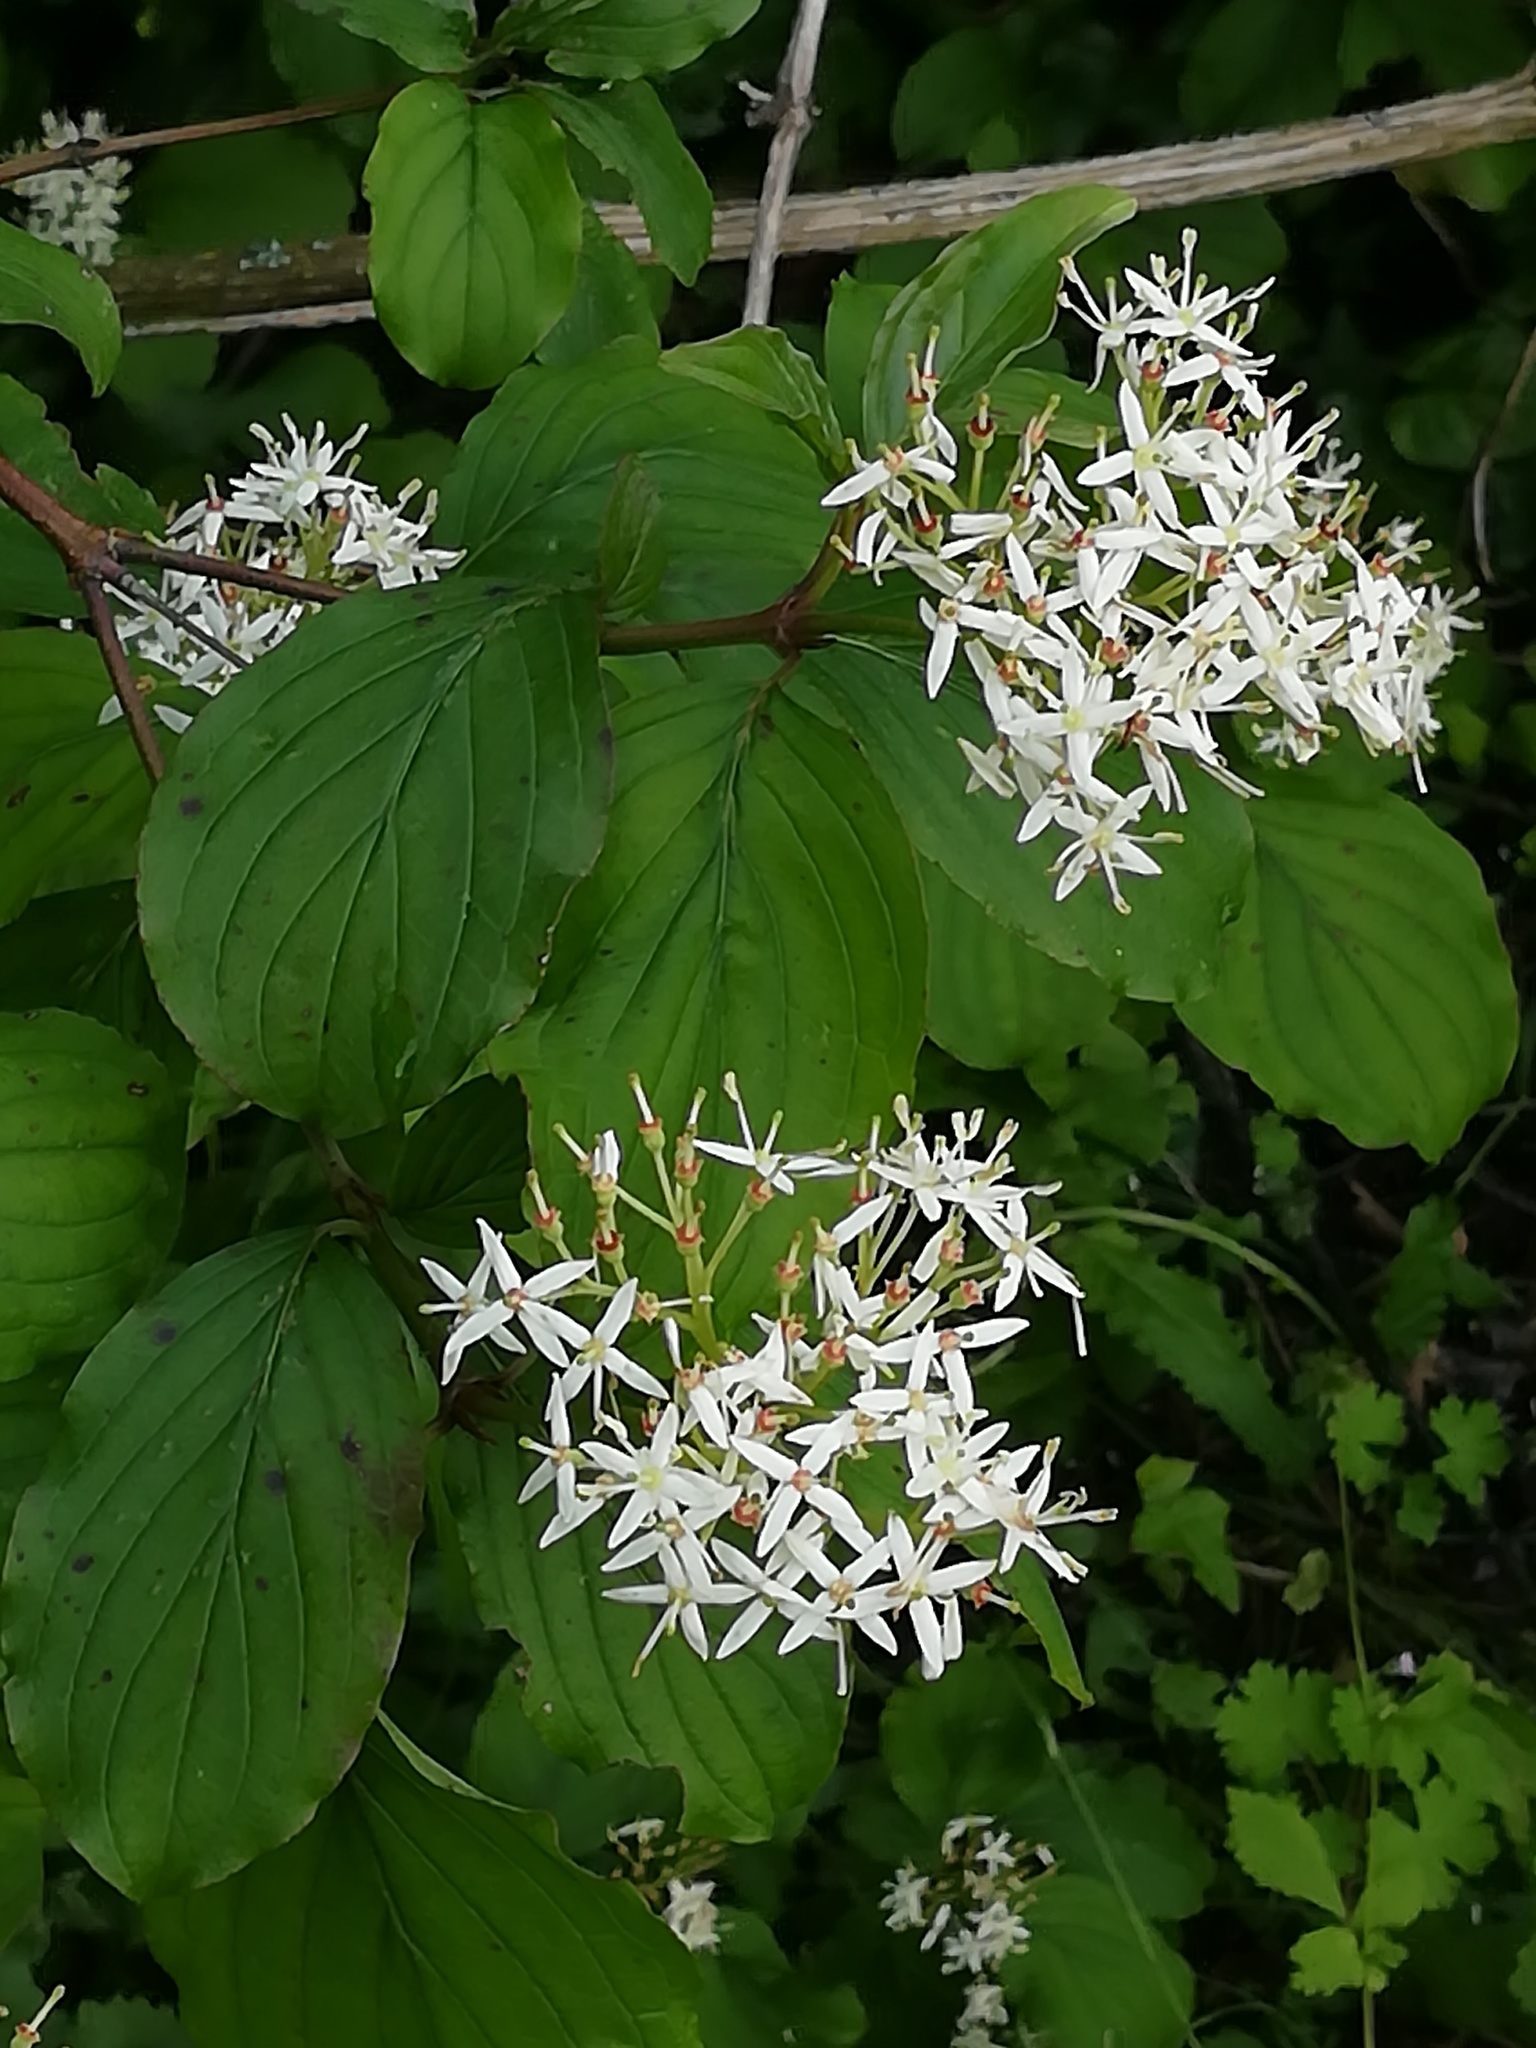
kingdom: Plantae
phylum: Tracheophyta
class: Magnoliopsida
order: Cornales
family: Cornaceae
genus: Cornus
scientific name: Cornus sanguinea
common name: Dogwood
